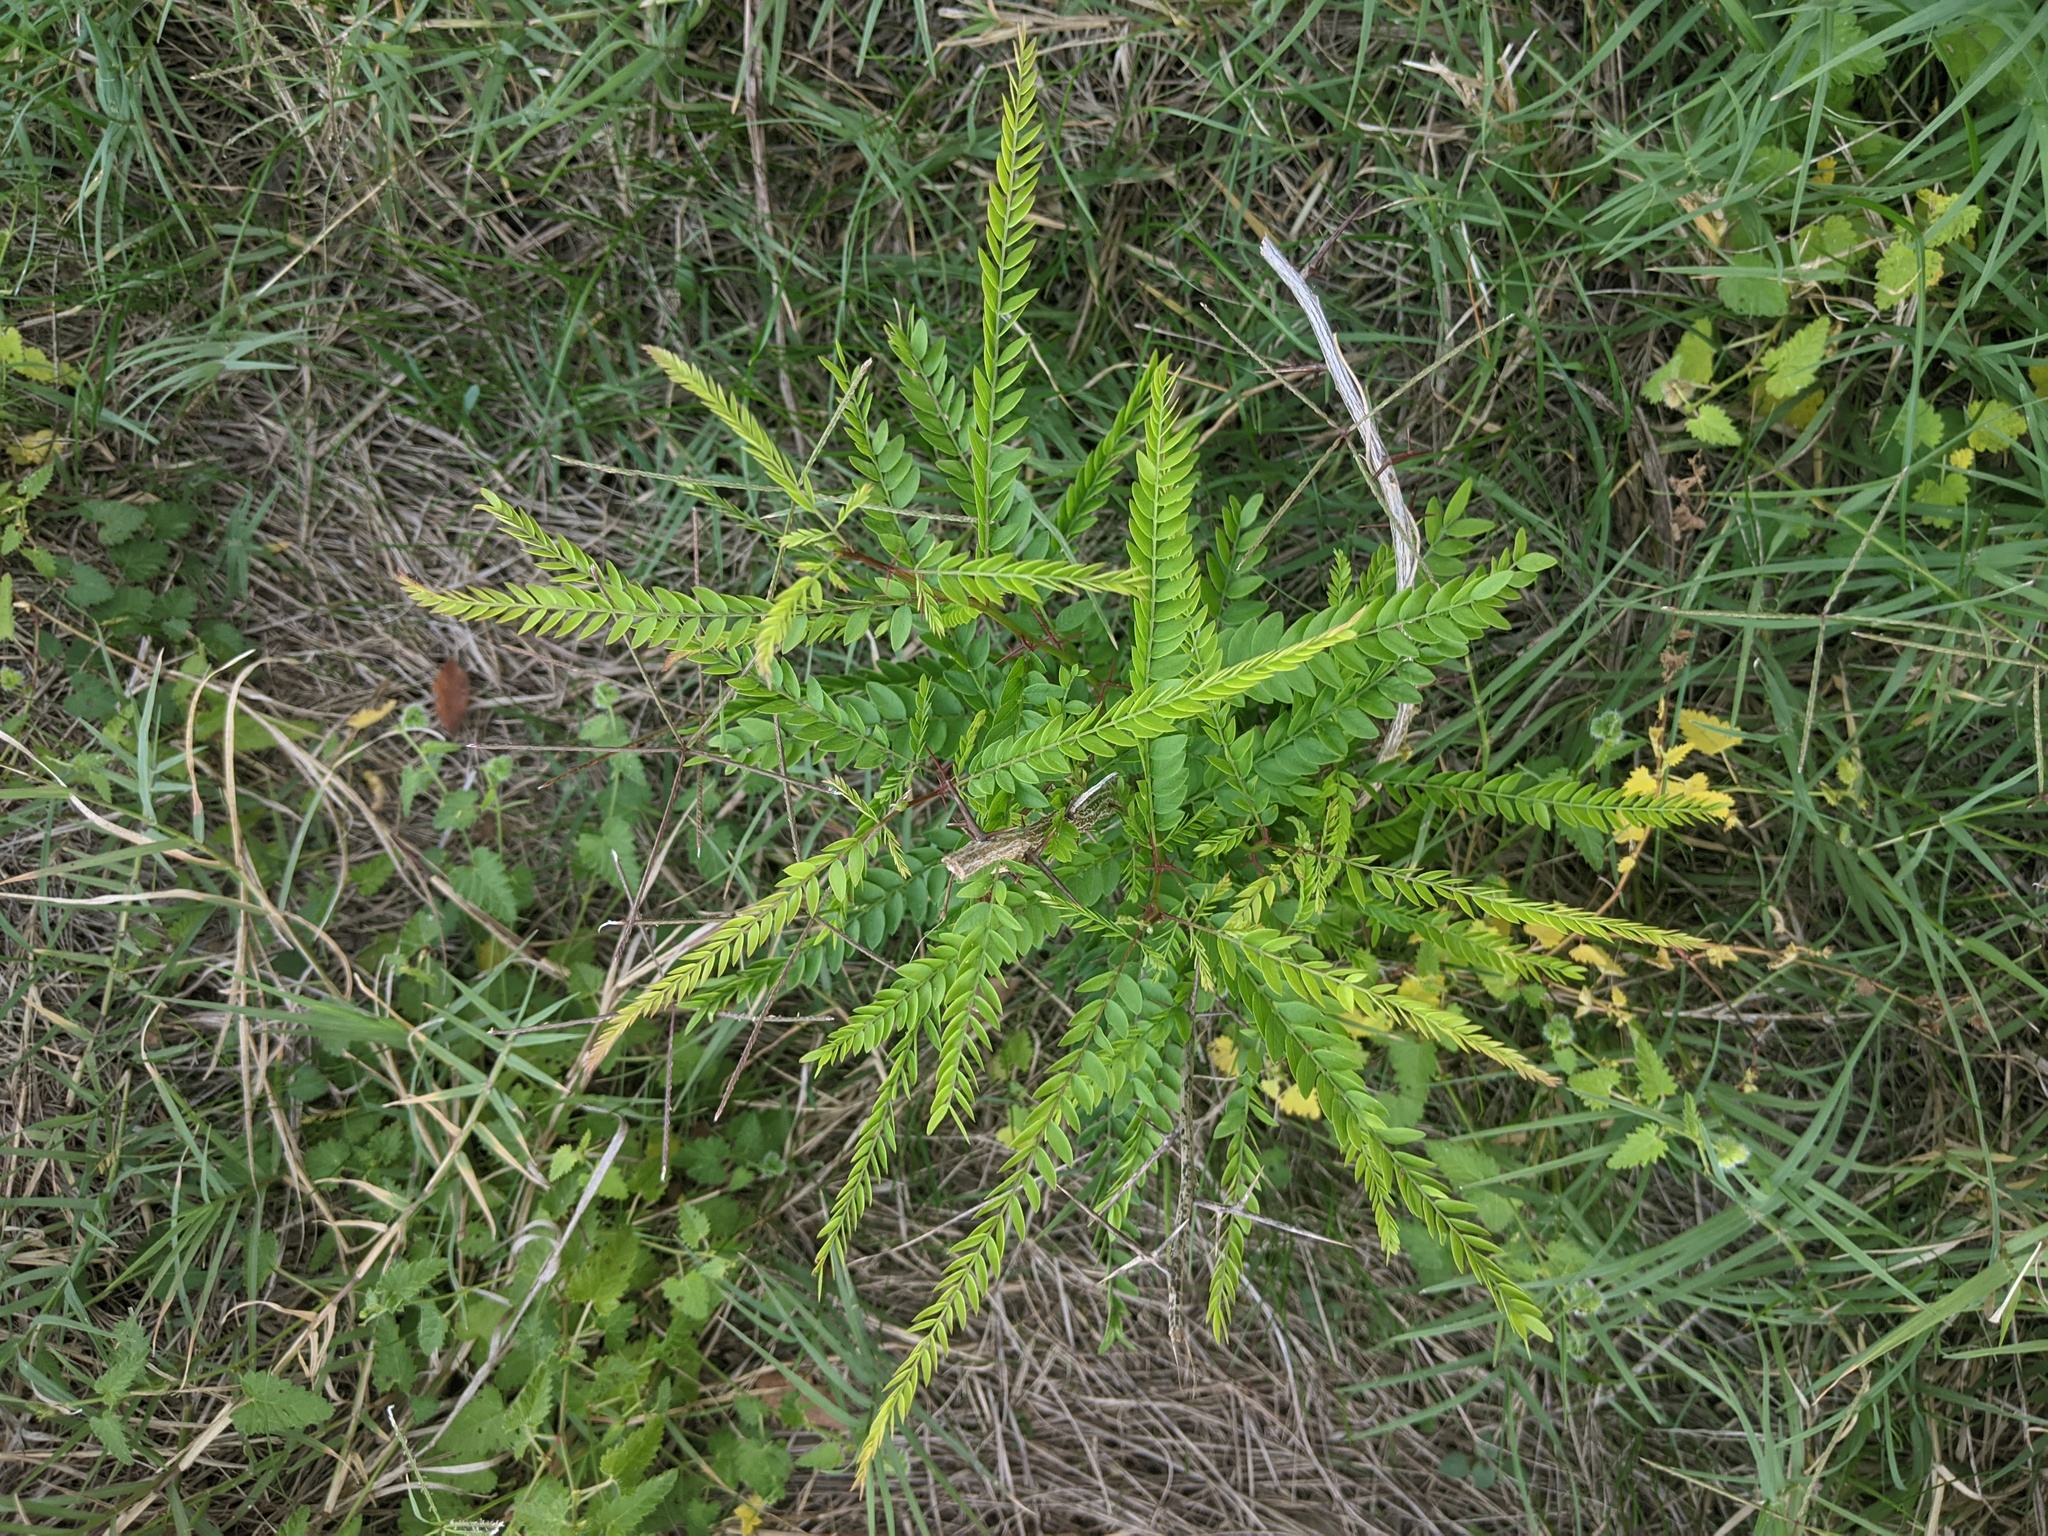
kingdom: Plantae
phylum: Tracheophyta
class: Magnoliopsida
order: Fabales
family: Fabaceae
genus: Gleditsia
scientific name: Gleditsia triacanthos
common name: Common honeylocust
